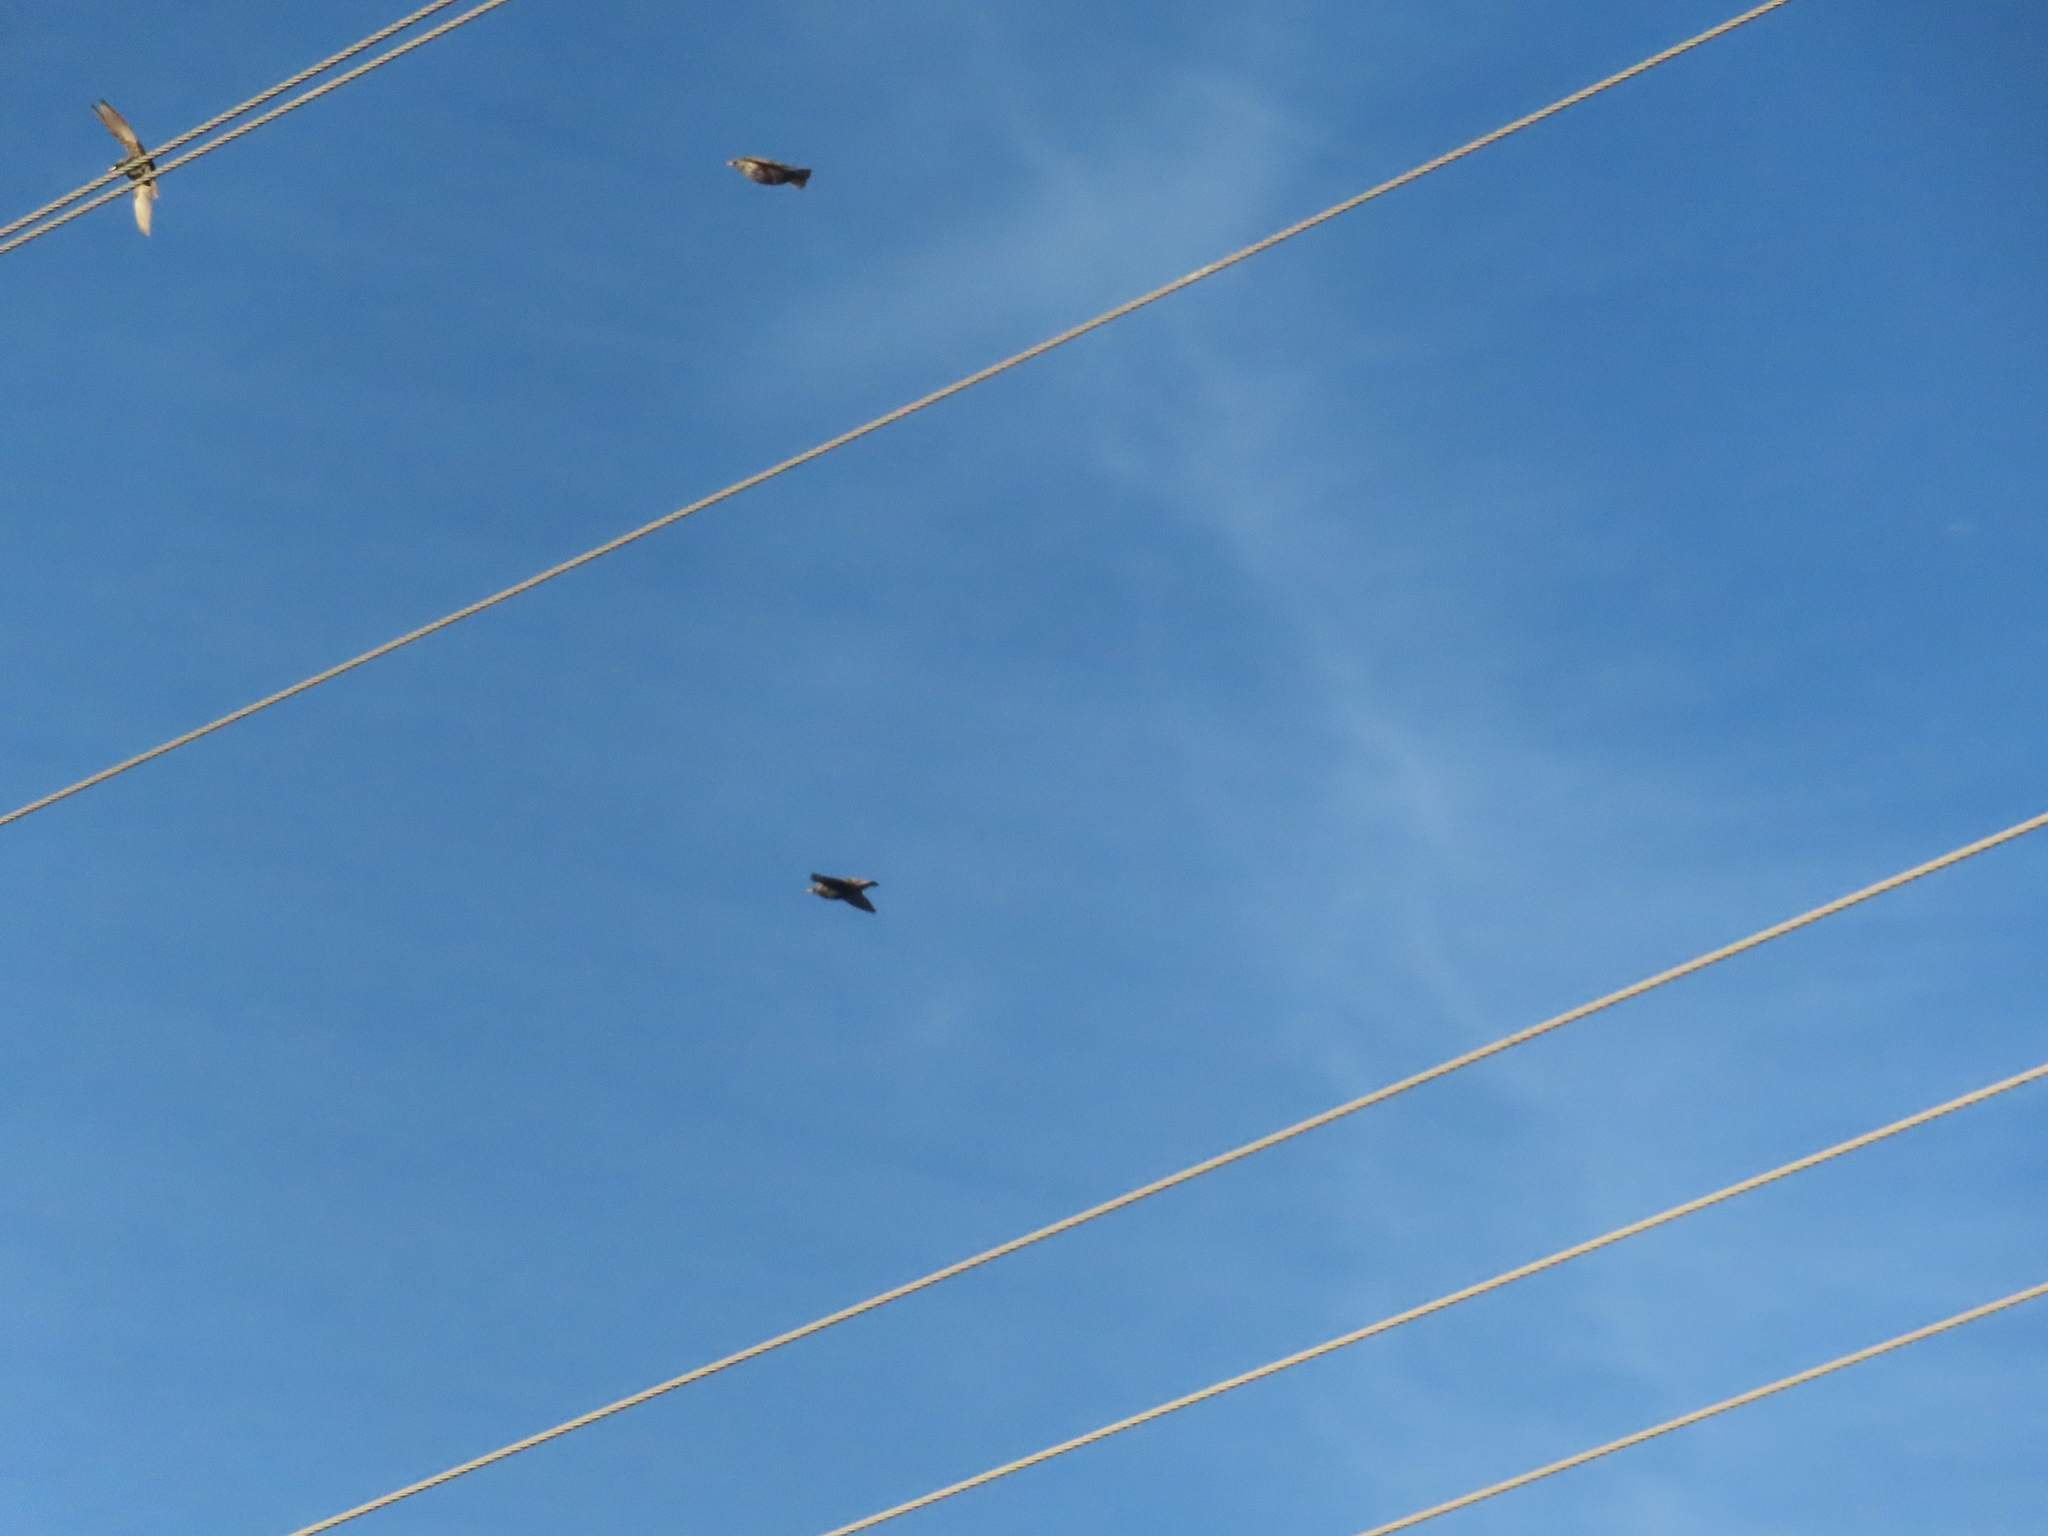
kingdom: Animalia
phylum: Chordata
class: Aves
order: Passeriformes
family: Sturnidae
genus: Sturnus
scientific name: Sturnus vulgaris
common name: Common starling
